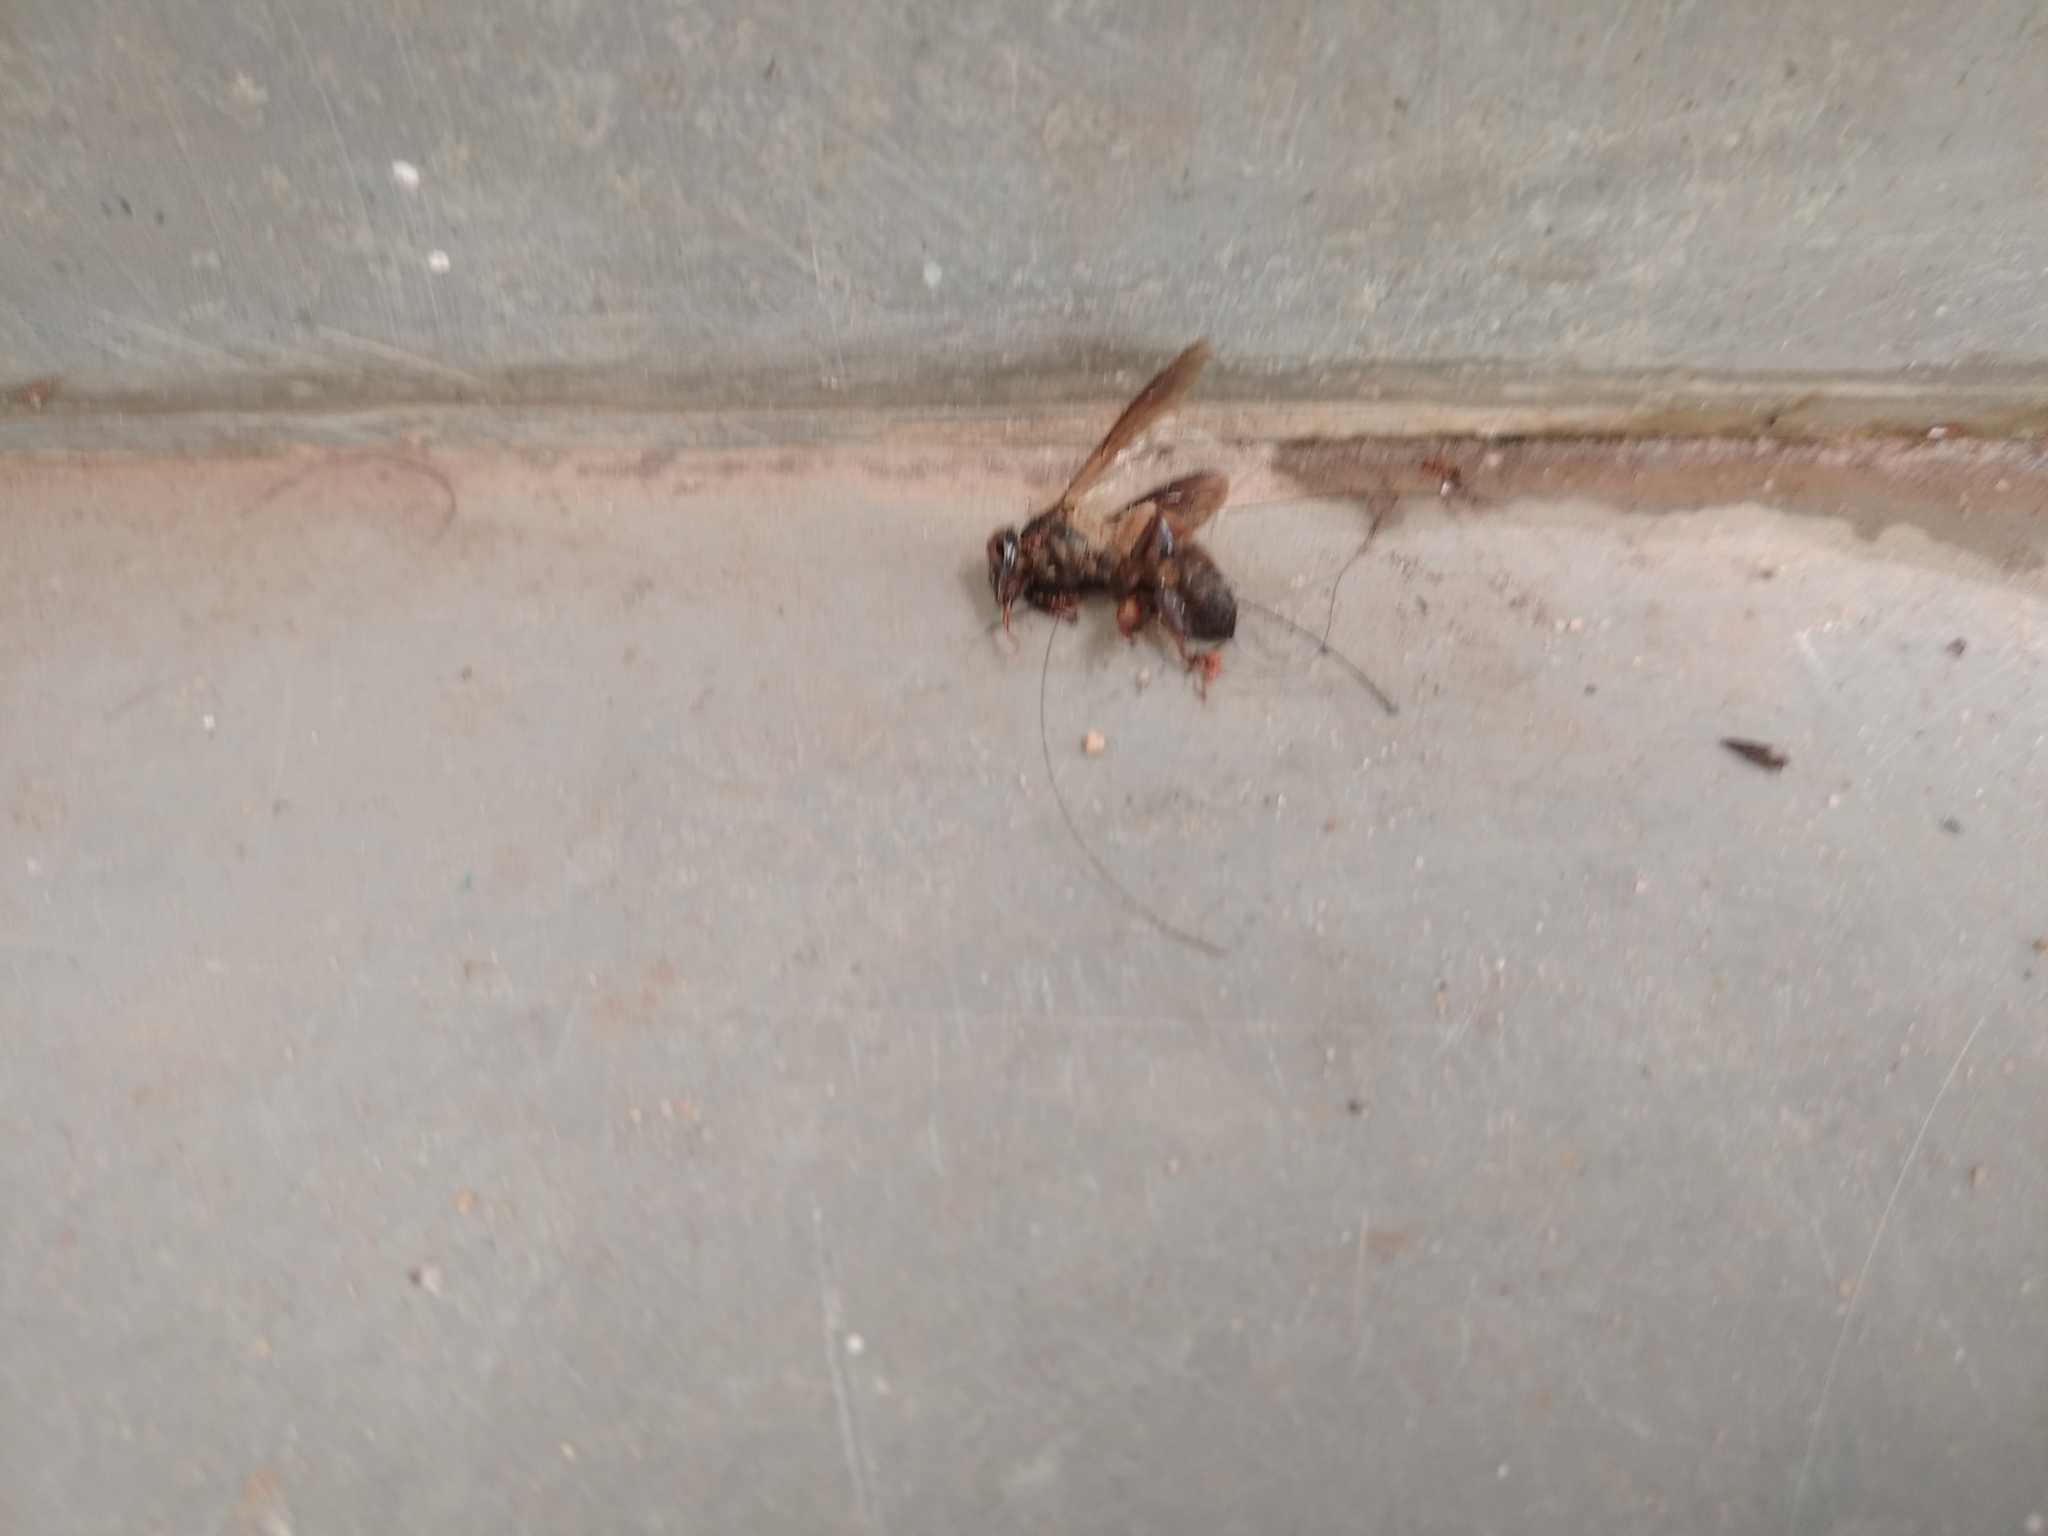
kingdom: Animalia
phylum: Arthropoda
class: Insecta
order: Hymenoptera
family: Apidae
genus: Apis
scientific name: Apis dorsata
